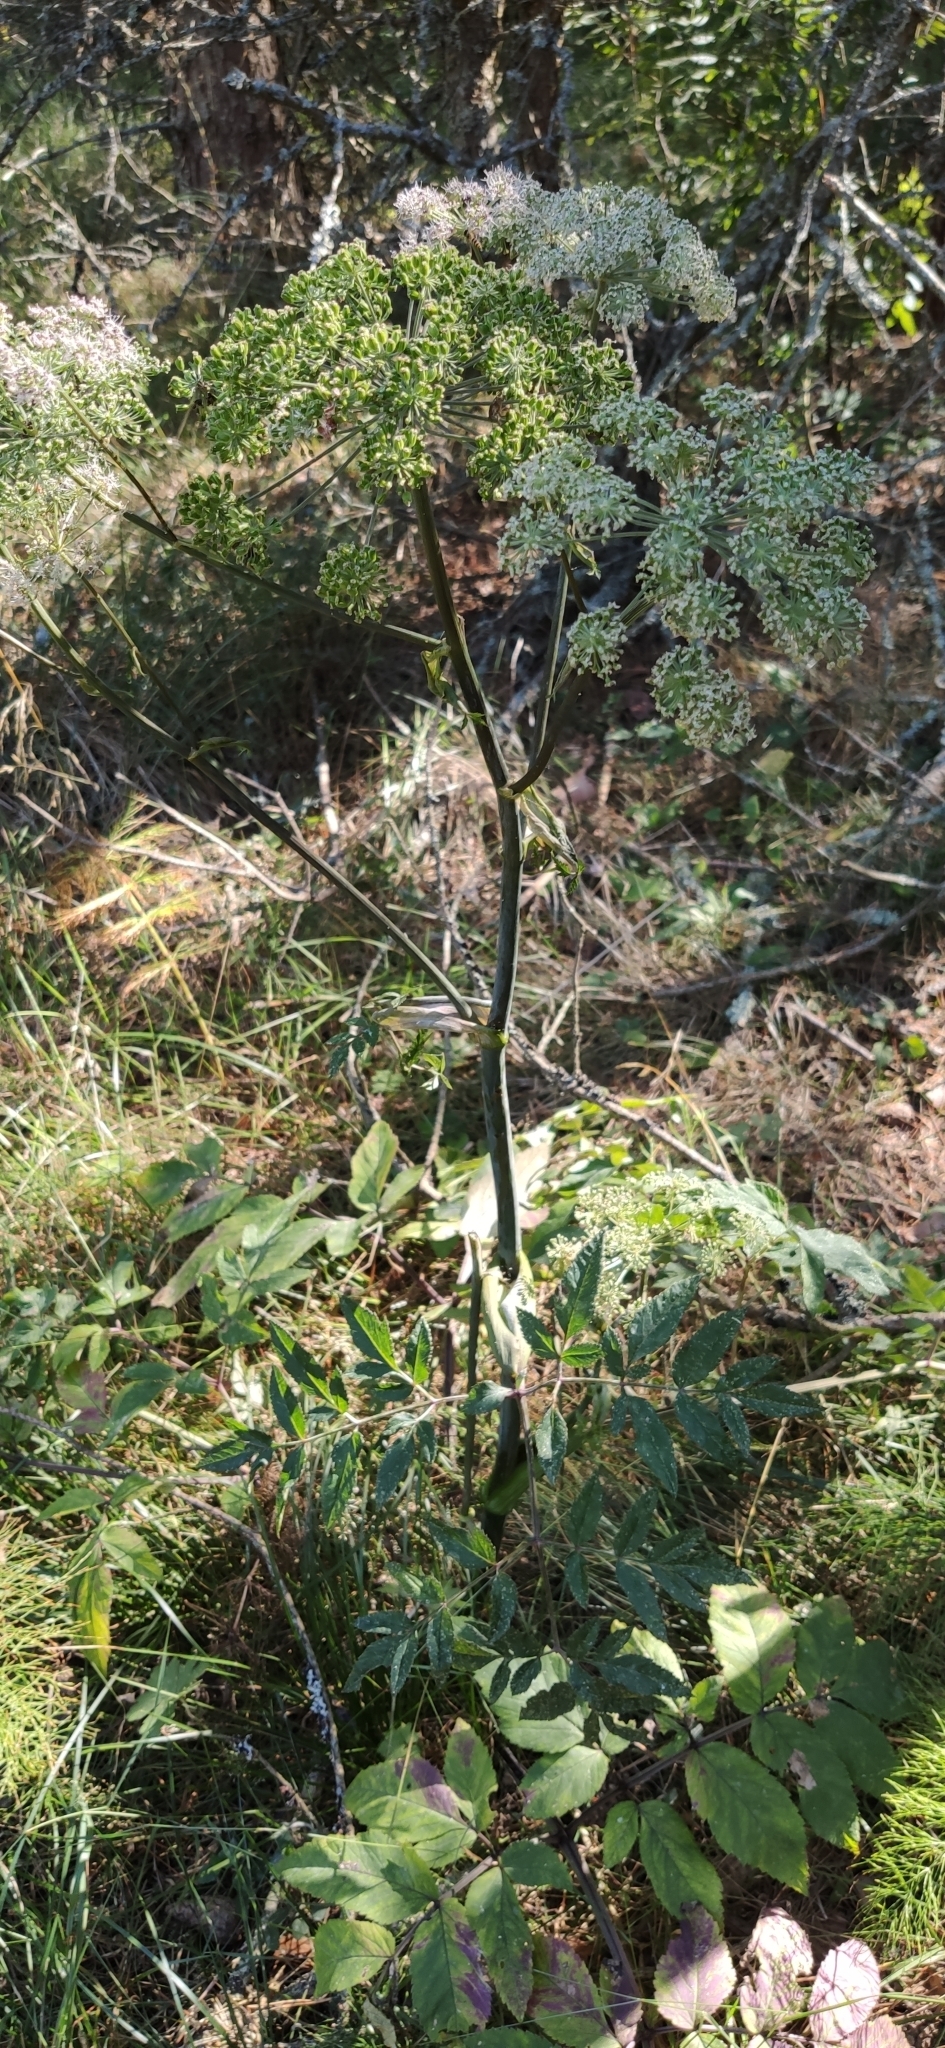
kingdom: Plantae
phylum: Tracheophyta
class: Magnoliopsida
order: Apiales
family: Apiaceae
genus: Angelica
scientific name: Angelica sylvestris
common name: Wild angelica
